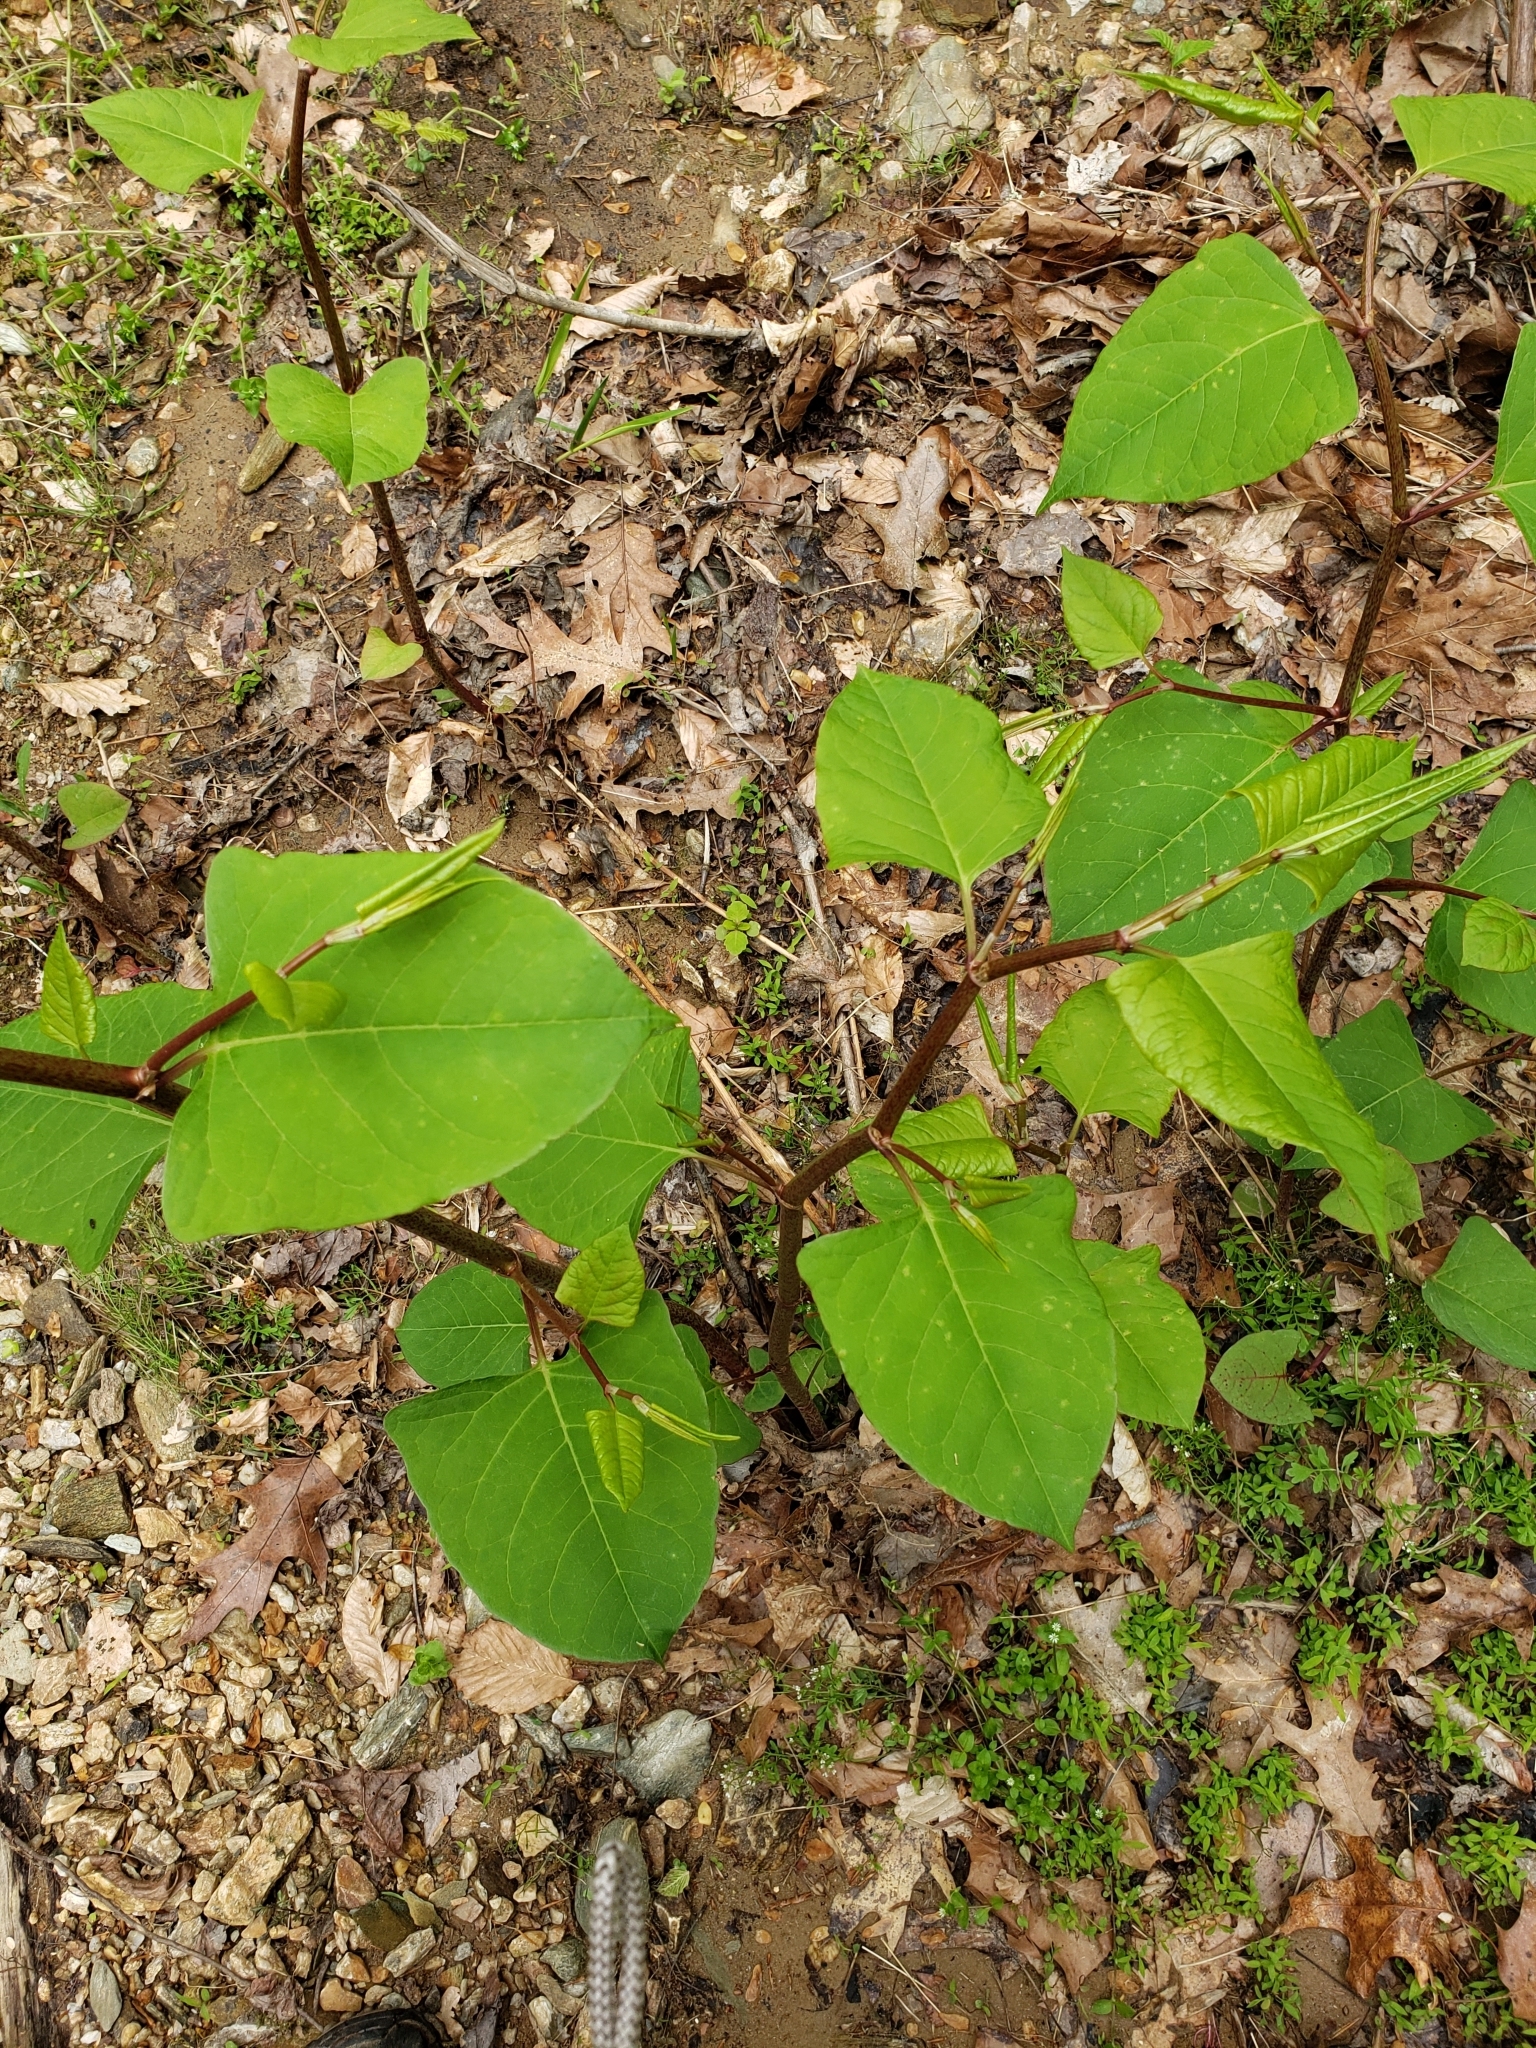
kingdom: Plantae
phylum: Tracheophyta
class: Magnoliopsida
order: Caryophyllales
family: Polygonaceae
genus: Reynoutria
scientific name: Reynoutria japonica
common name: Japanese knotweed
